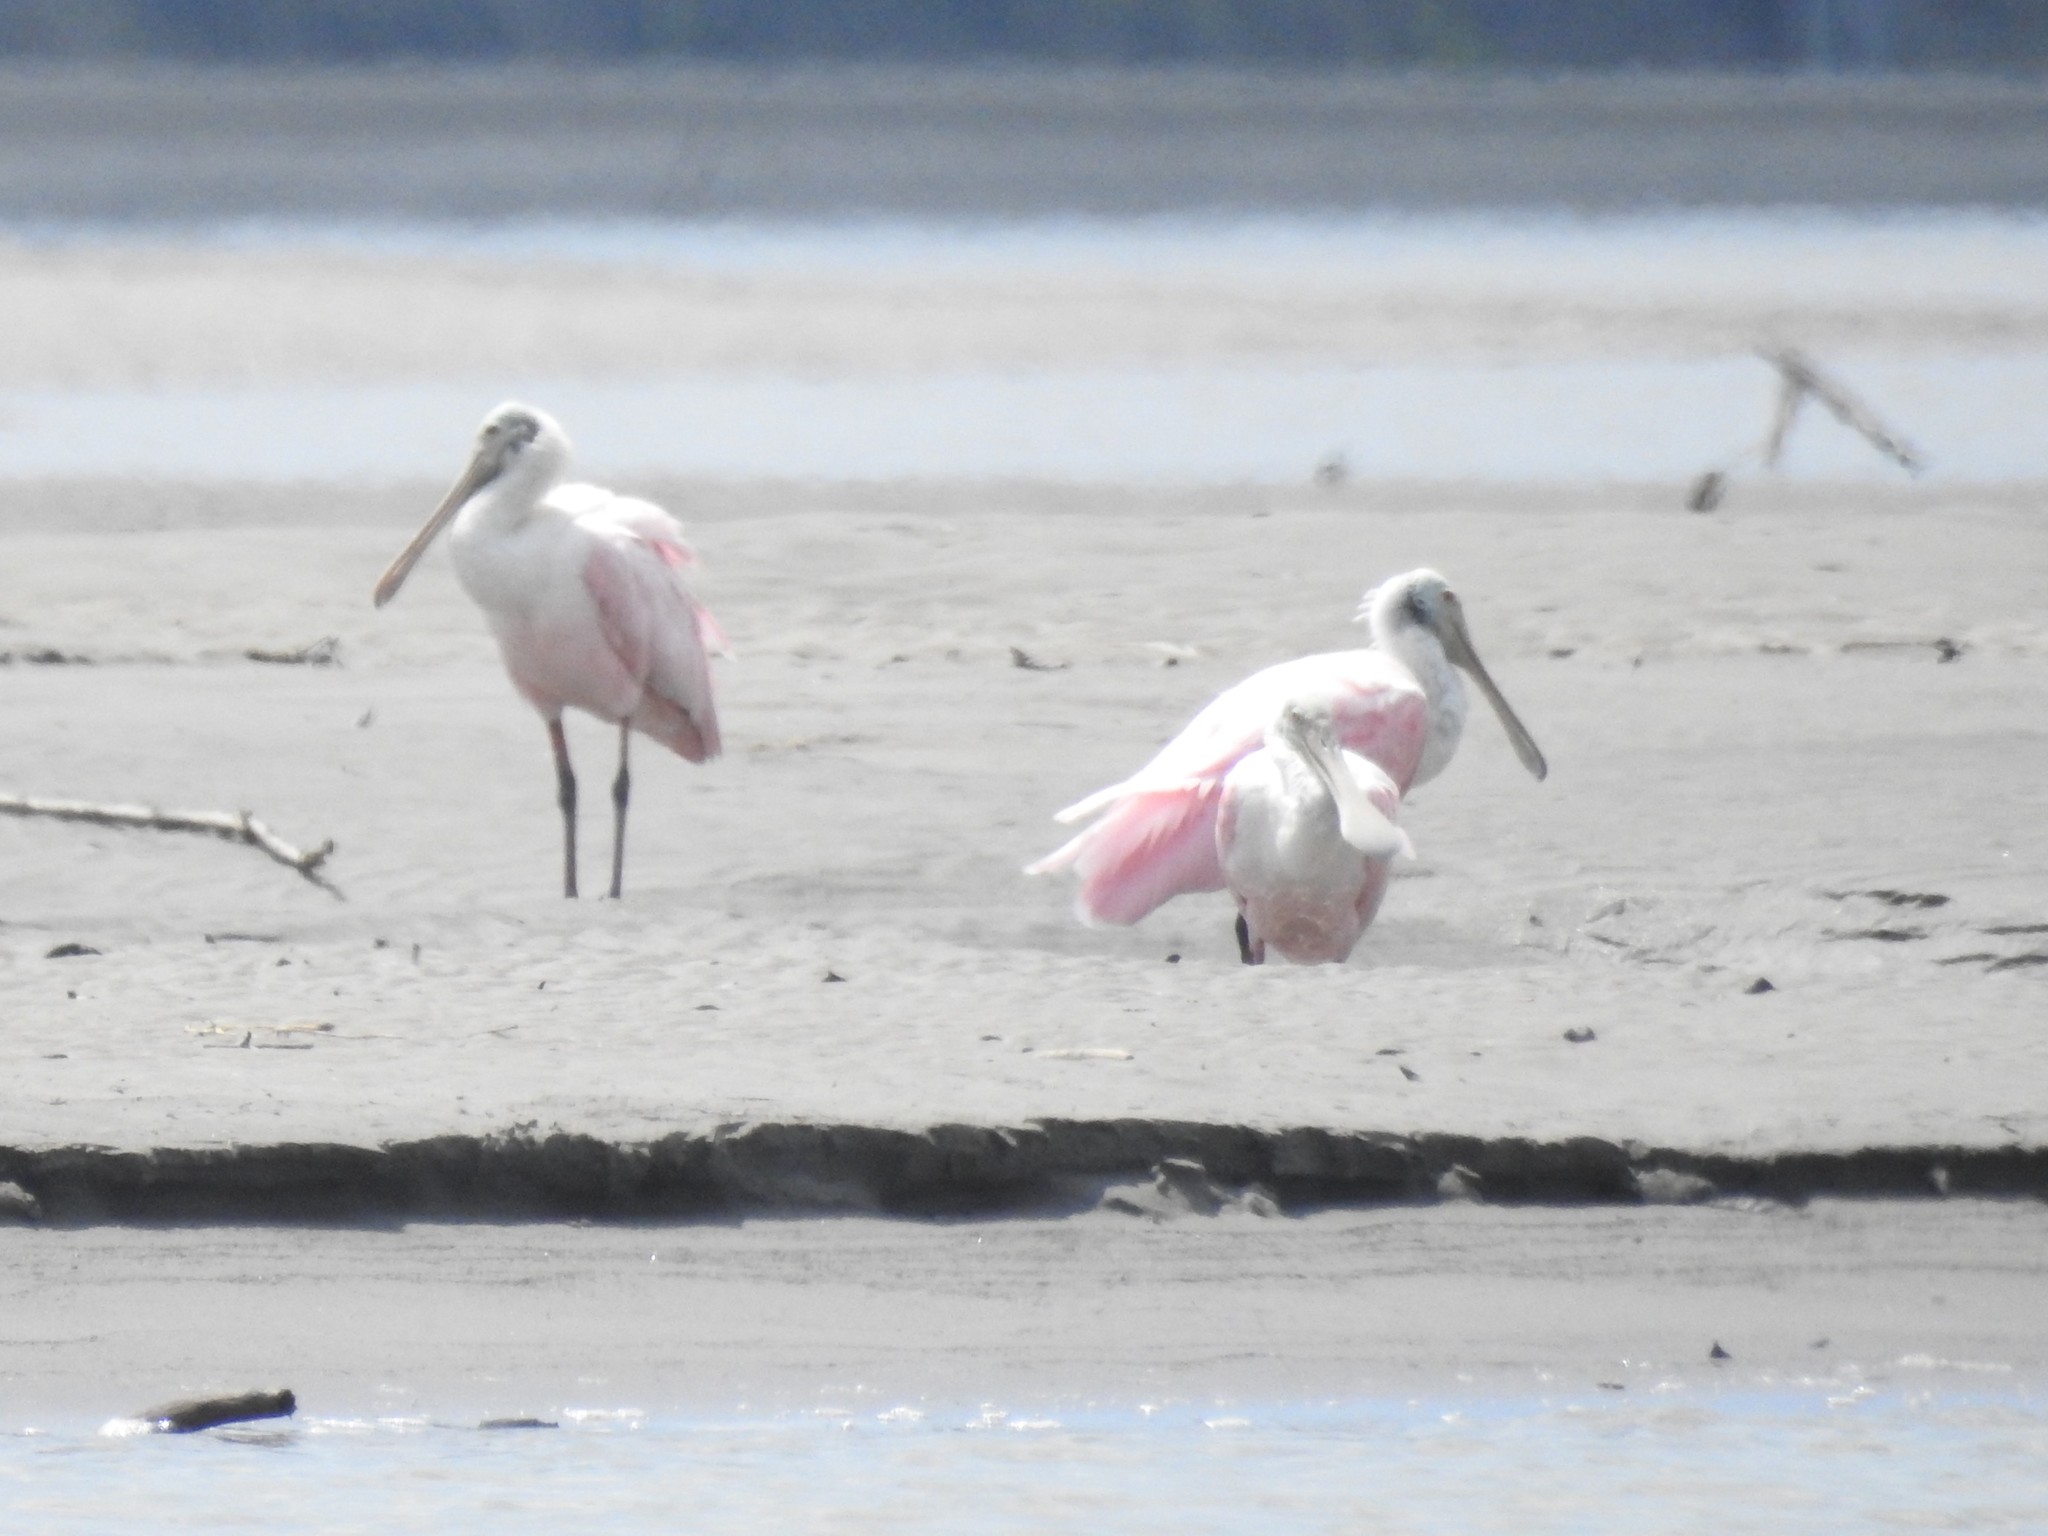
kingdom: Animalia
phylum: Chordata
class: Aves
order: Pelecaniformes
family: Threskiornithidae
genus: Platalea
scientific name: Platalea ajaja
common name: Roseate spoonbill
